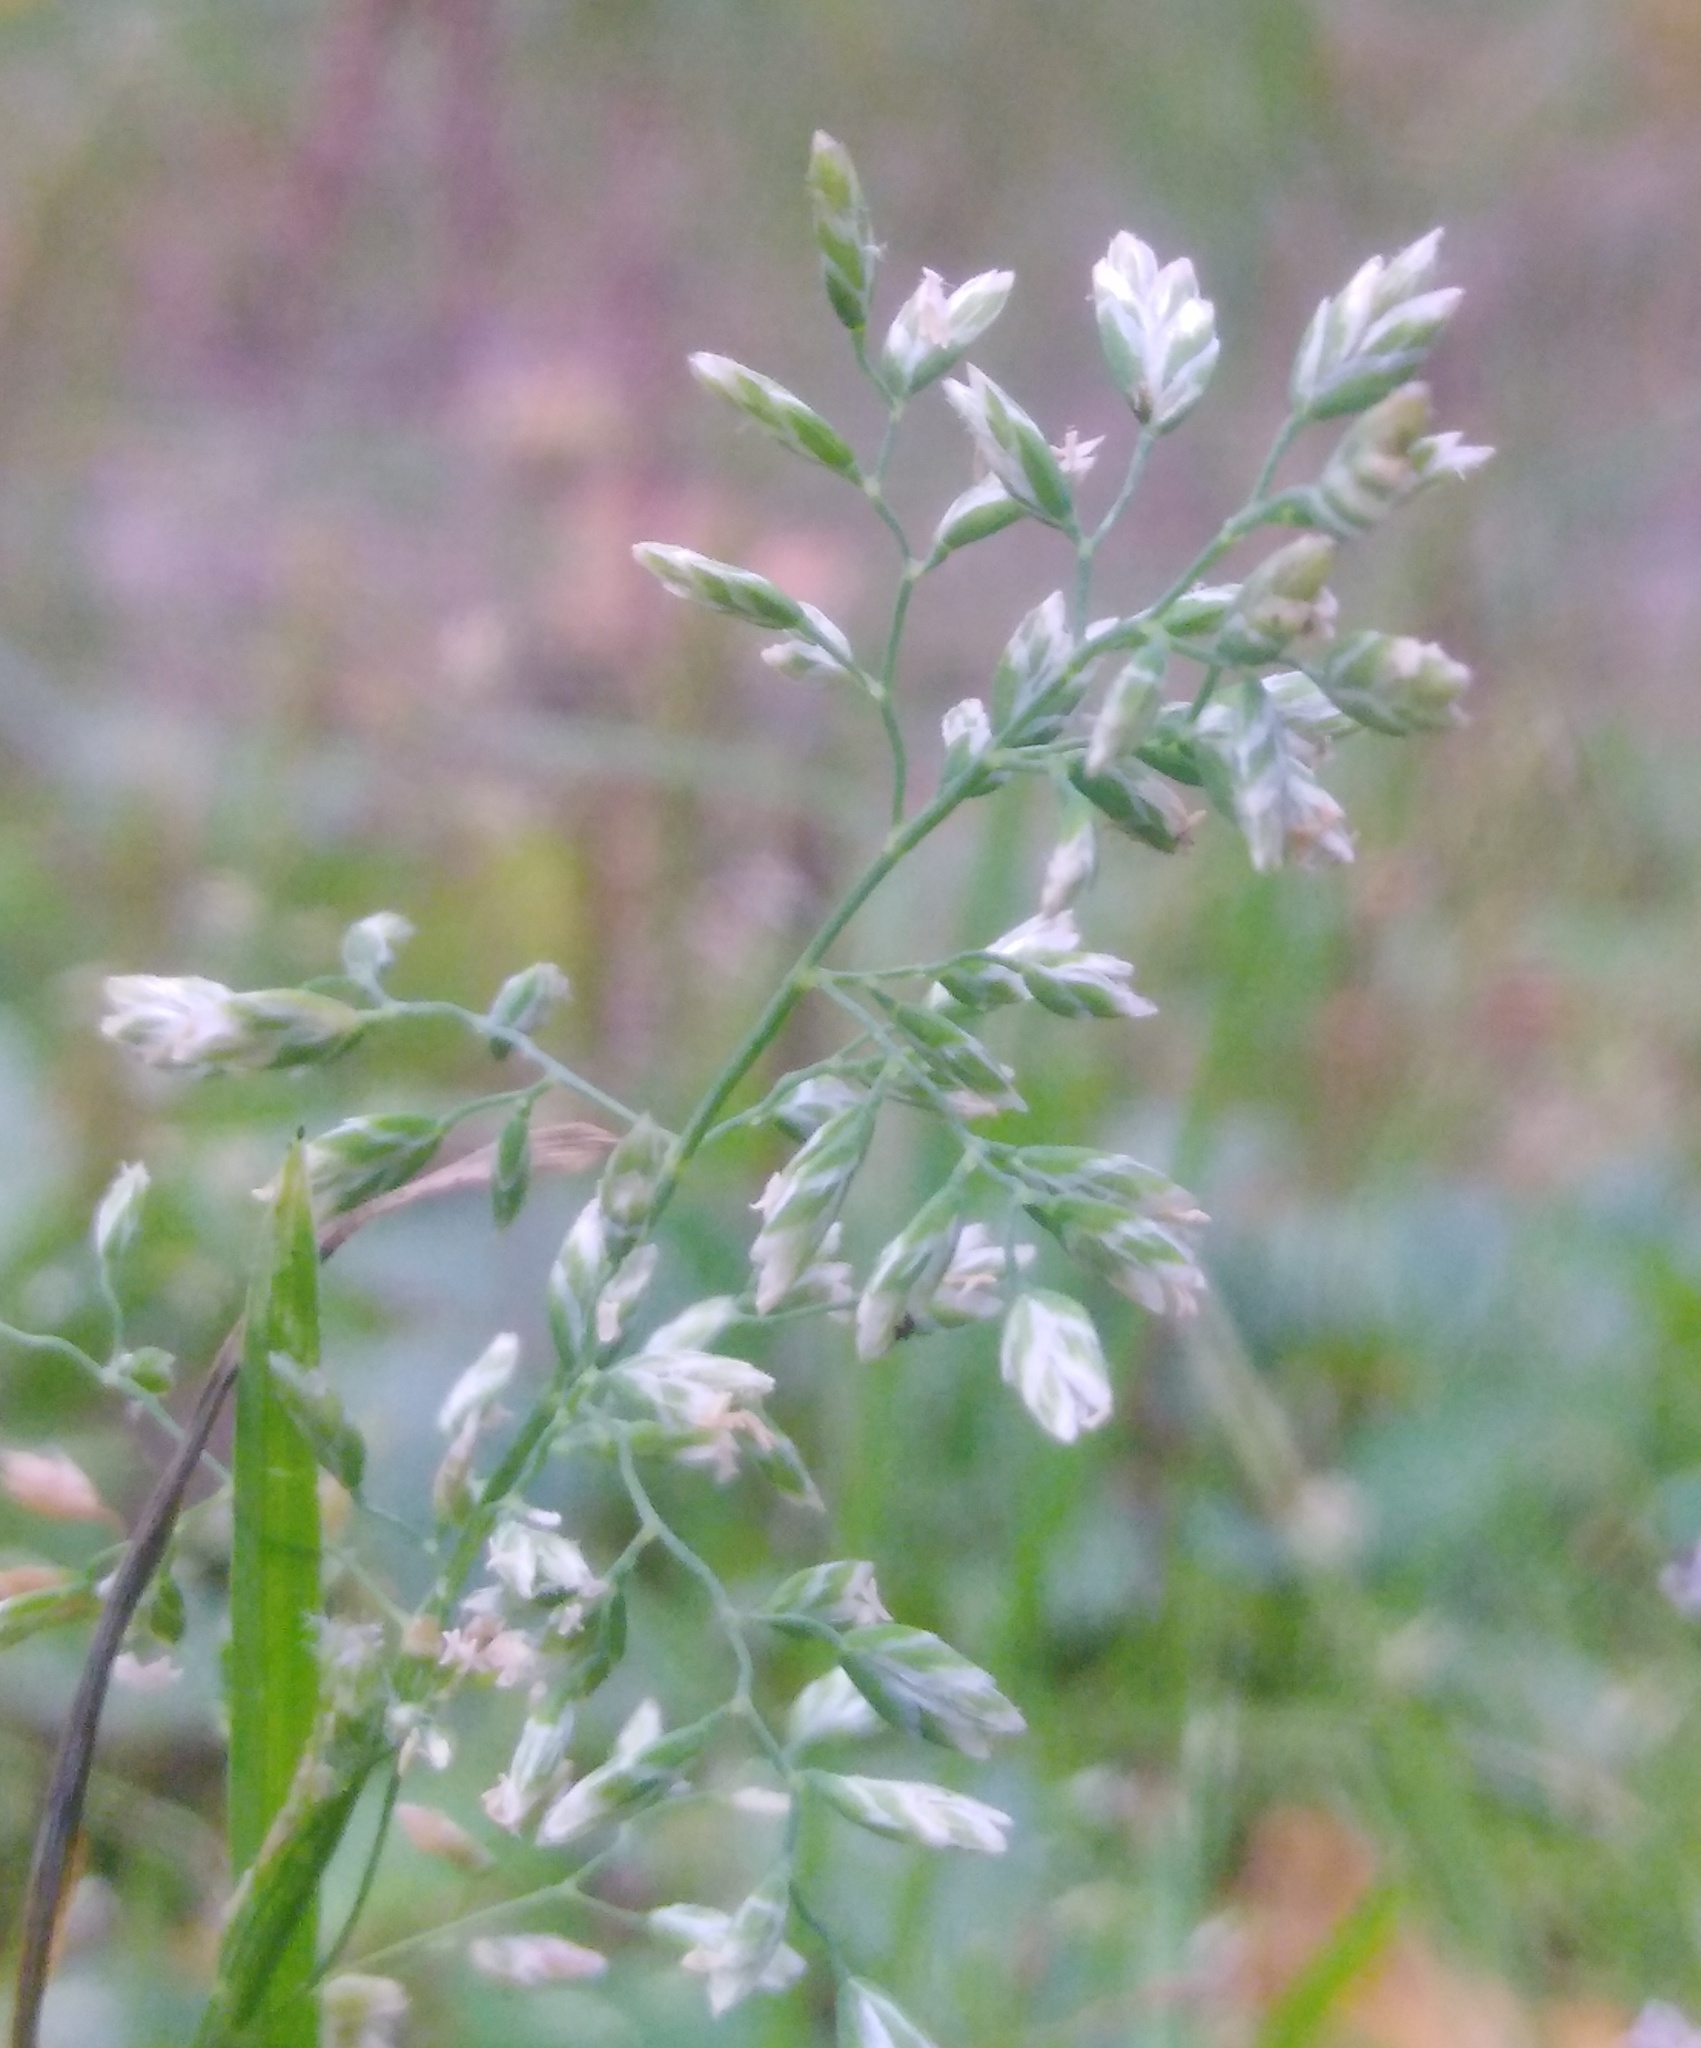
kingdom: Plantae
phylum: Tracheophyta
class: Liliopsida
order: Poales
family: Poaceae
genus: Poa
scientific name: Poa annua
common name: Annual bluegrass
